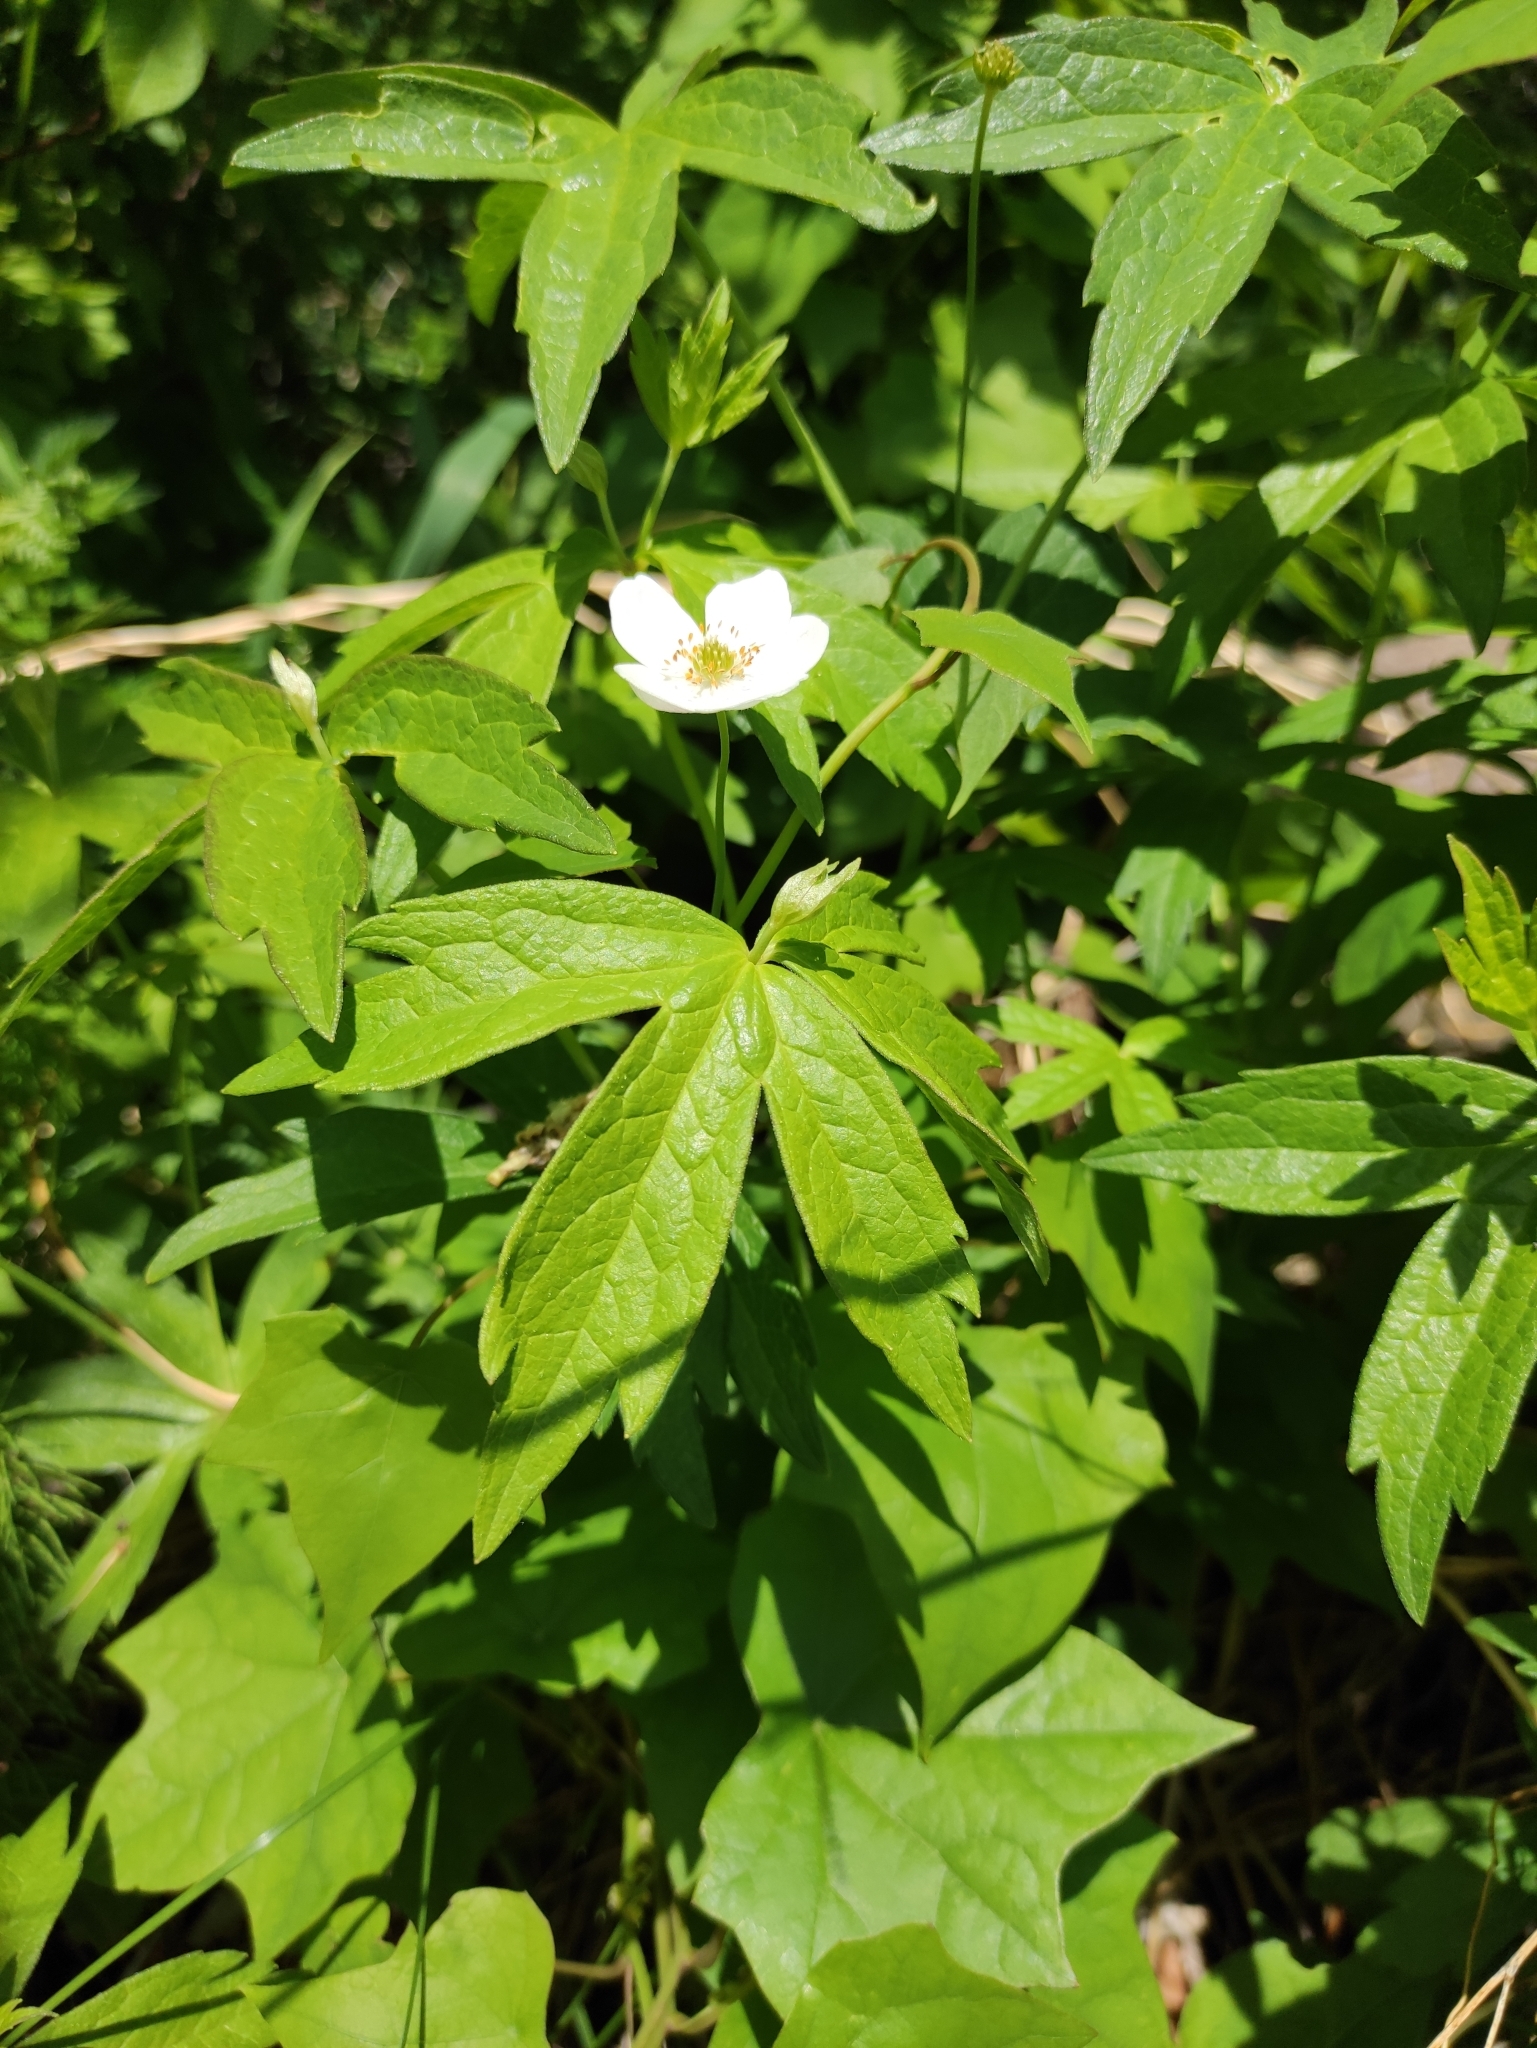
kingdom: Plantae
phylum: Tracheophyta
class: Magnoliopsida
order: Ranunculales
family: Ranunculaceae
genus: Anemonastrum
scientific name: Anemonastrum dichotomum
